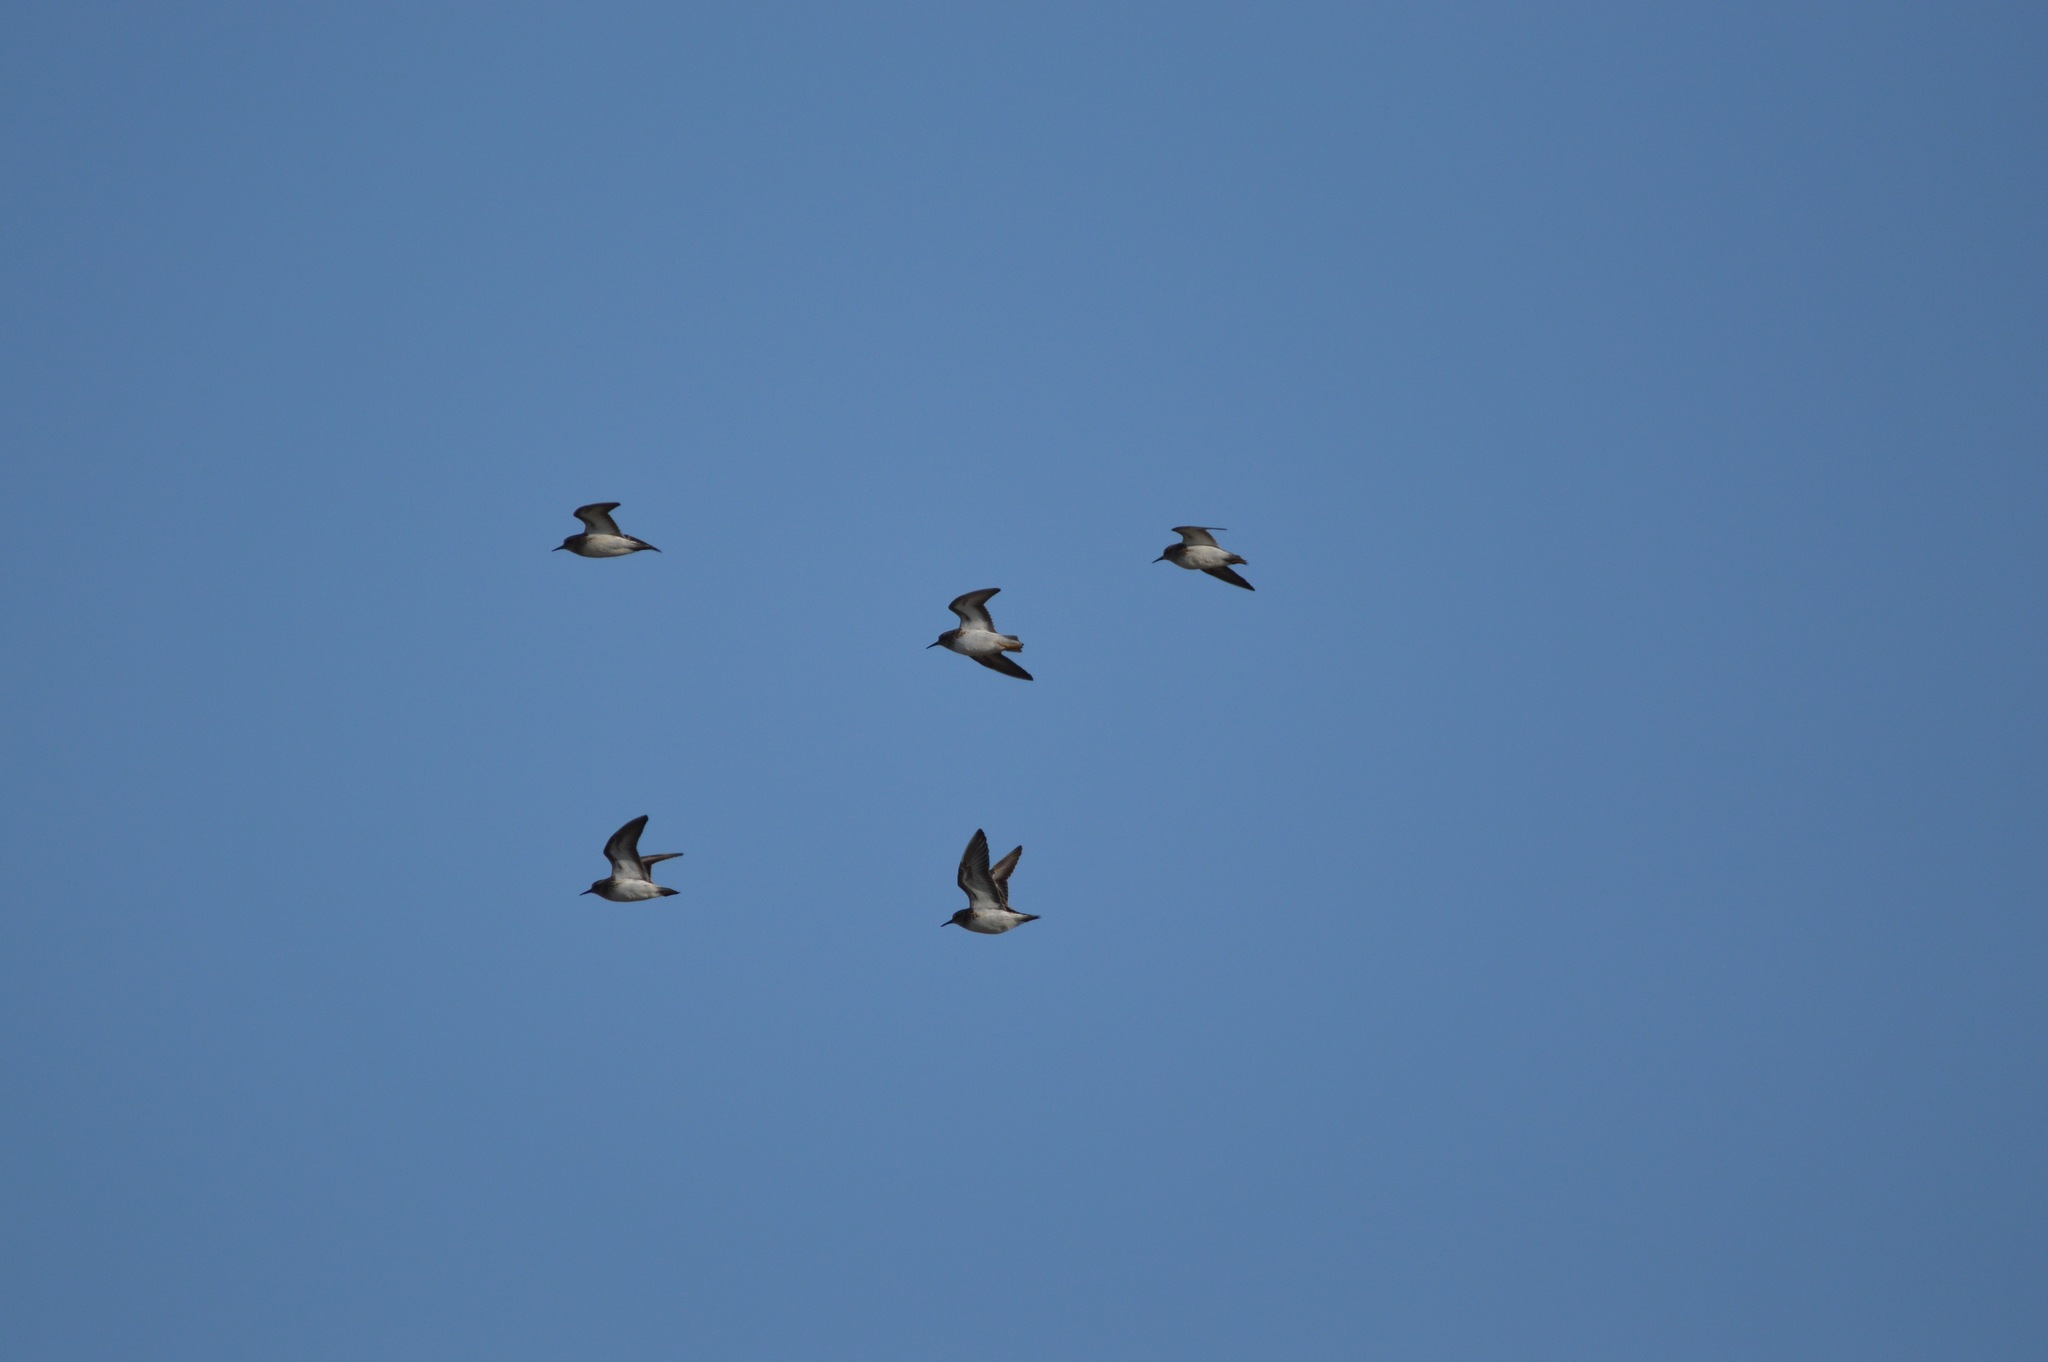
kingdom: Animalia
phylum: Chordata
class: Aves
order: Charadriiformes
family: Scolopacidae
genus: Calidris
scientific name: Calidris minutilla
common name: Least sandpiper
